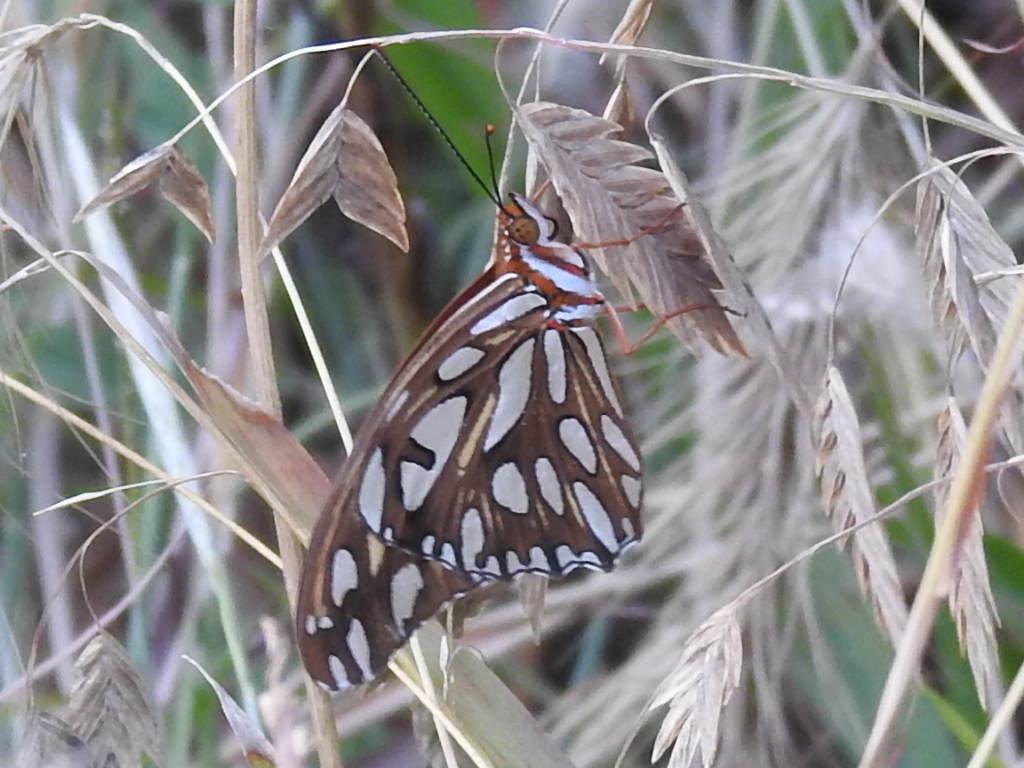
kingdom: Animalia
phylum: Arthropoda
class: Insecta
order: Lepidoptera
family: Nymphalidae
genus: Dione
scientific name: Dione vanillae
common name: Gulf fritillary
